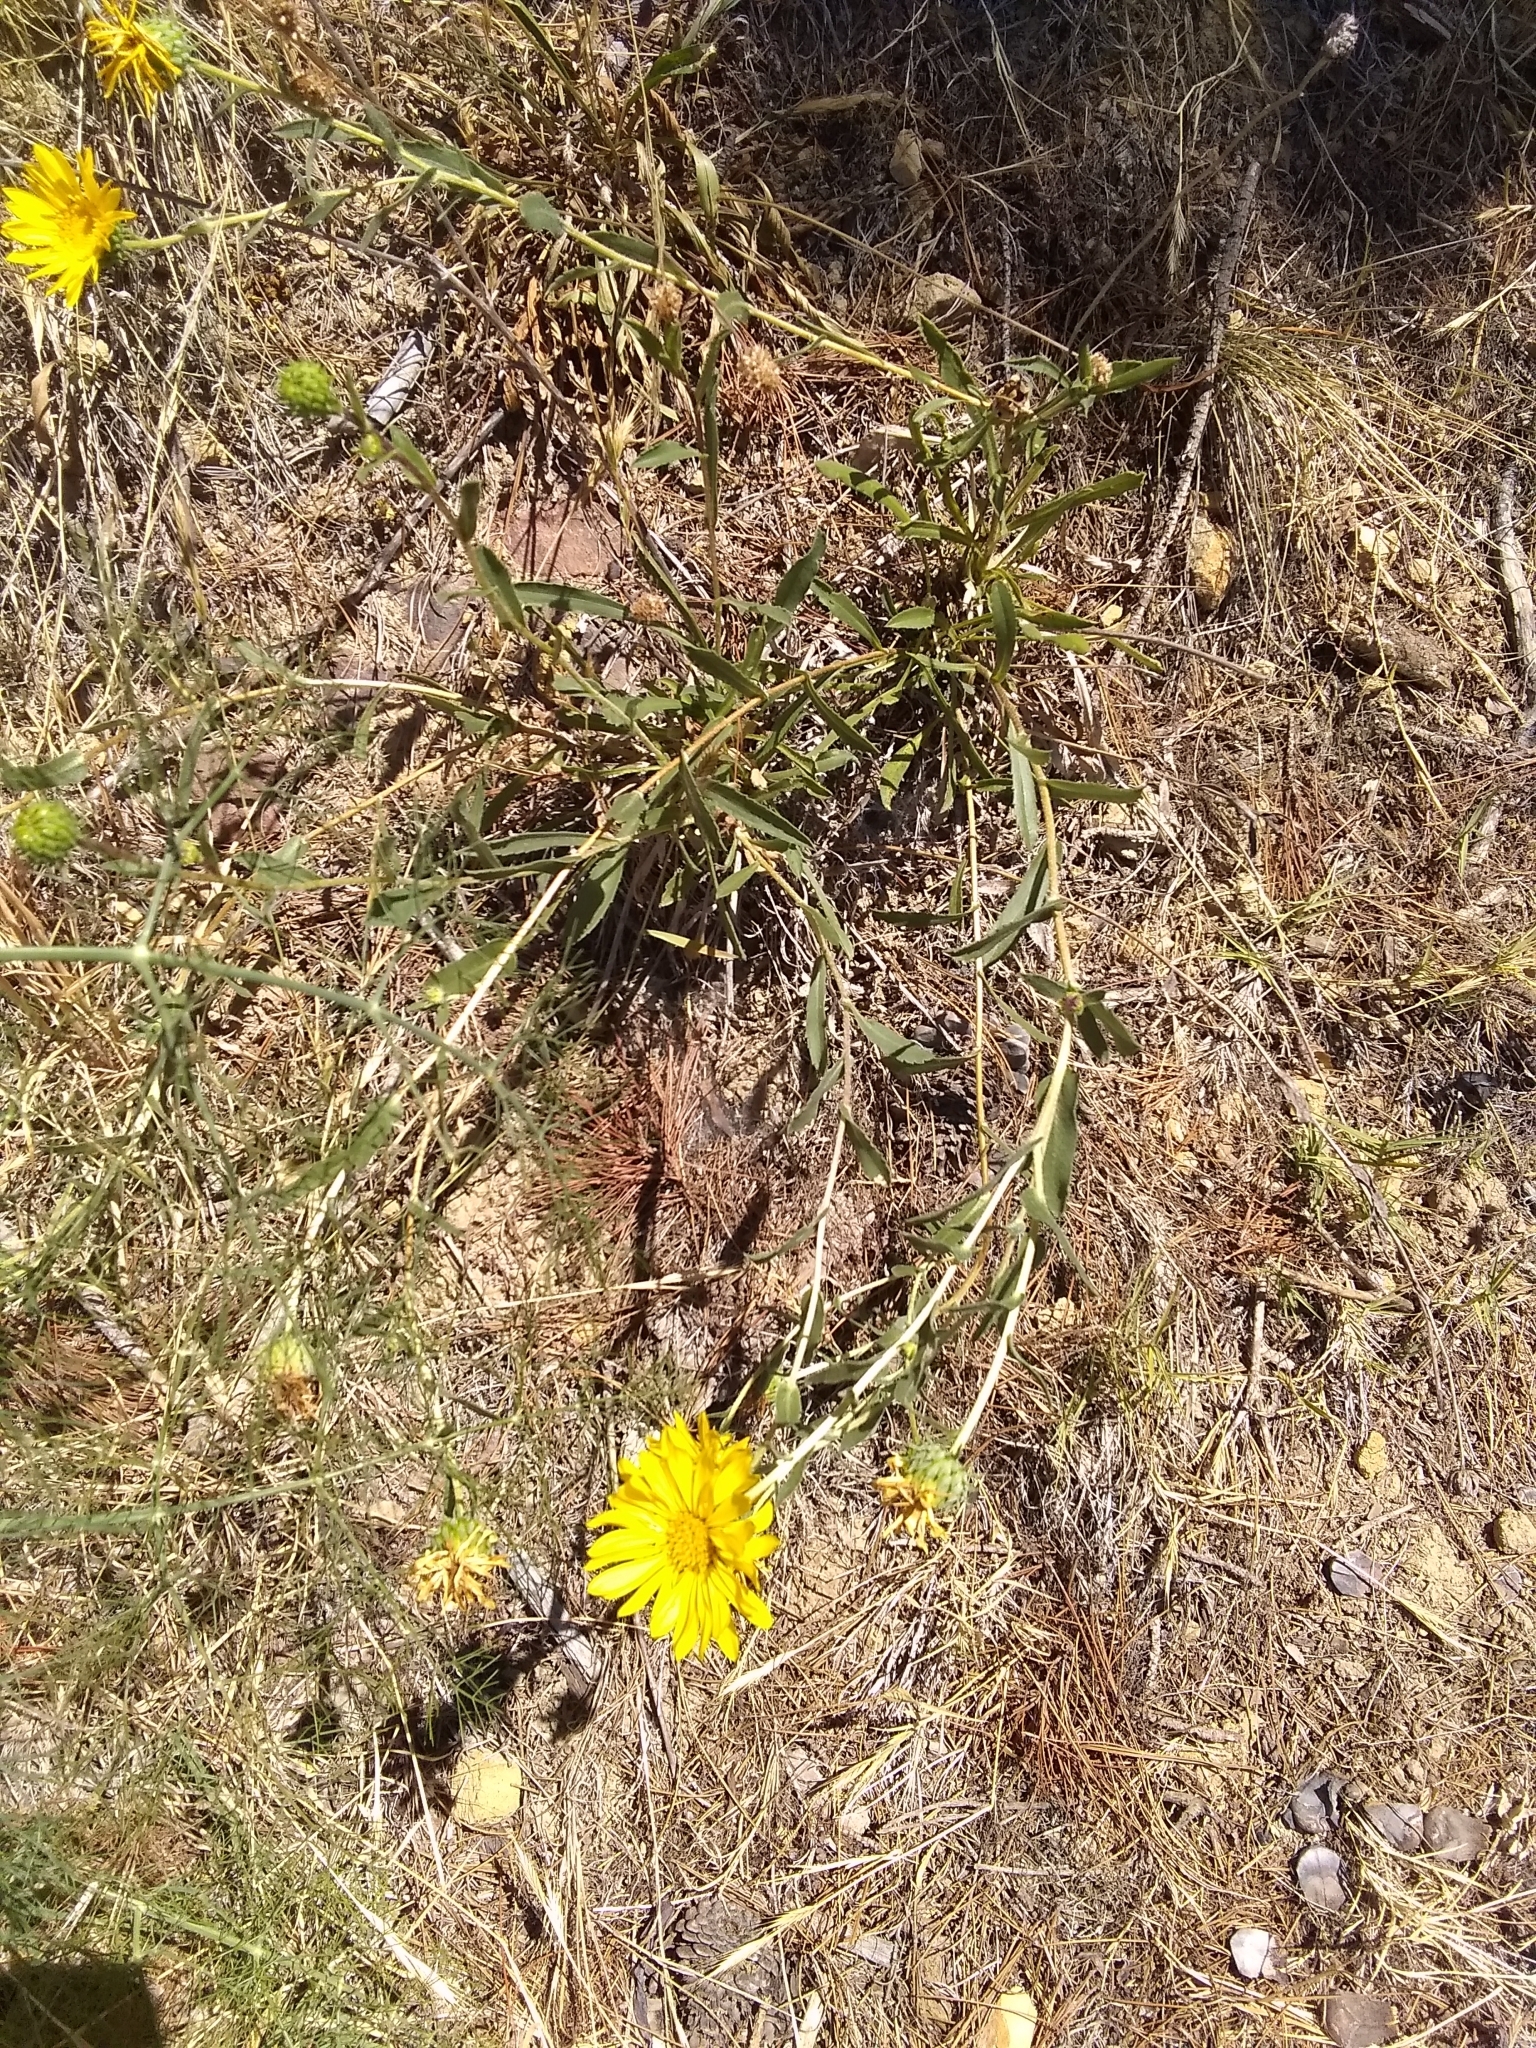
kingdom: Plantae
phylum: Tracheophyta
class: Magnoliopsida
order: Asterales
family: Asteraceae
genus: Grindelia
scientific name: Grindelia hirsutula
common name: Hairy gumweed
